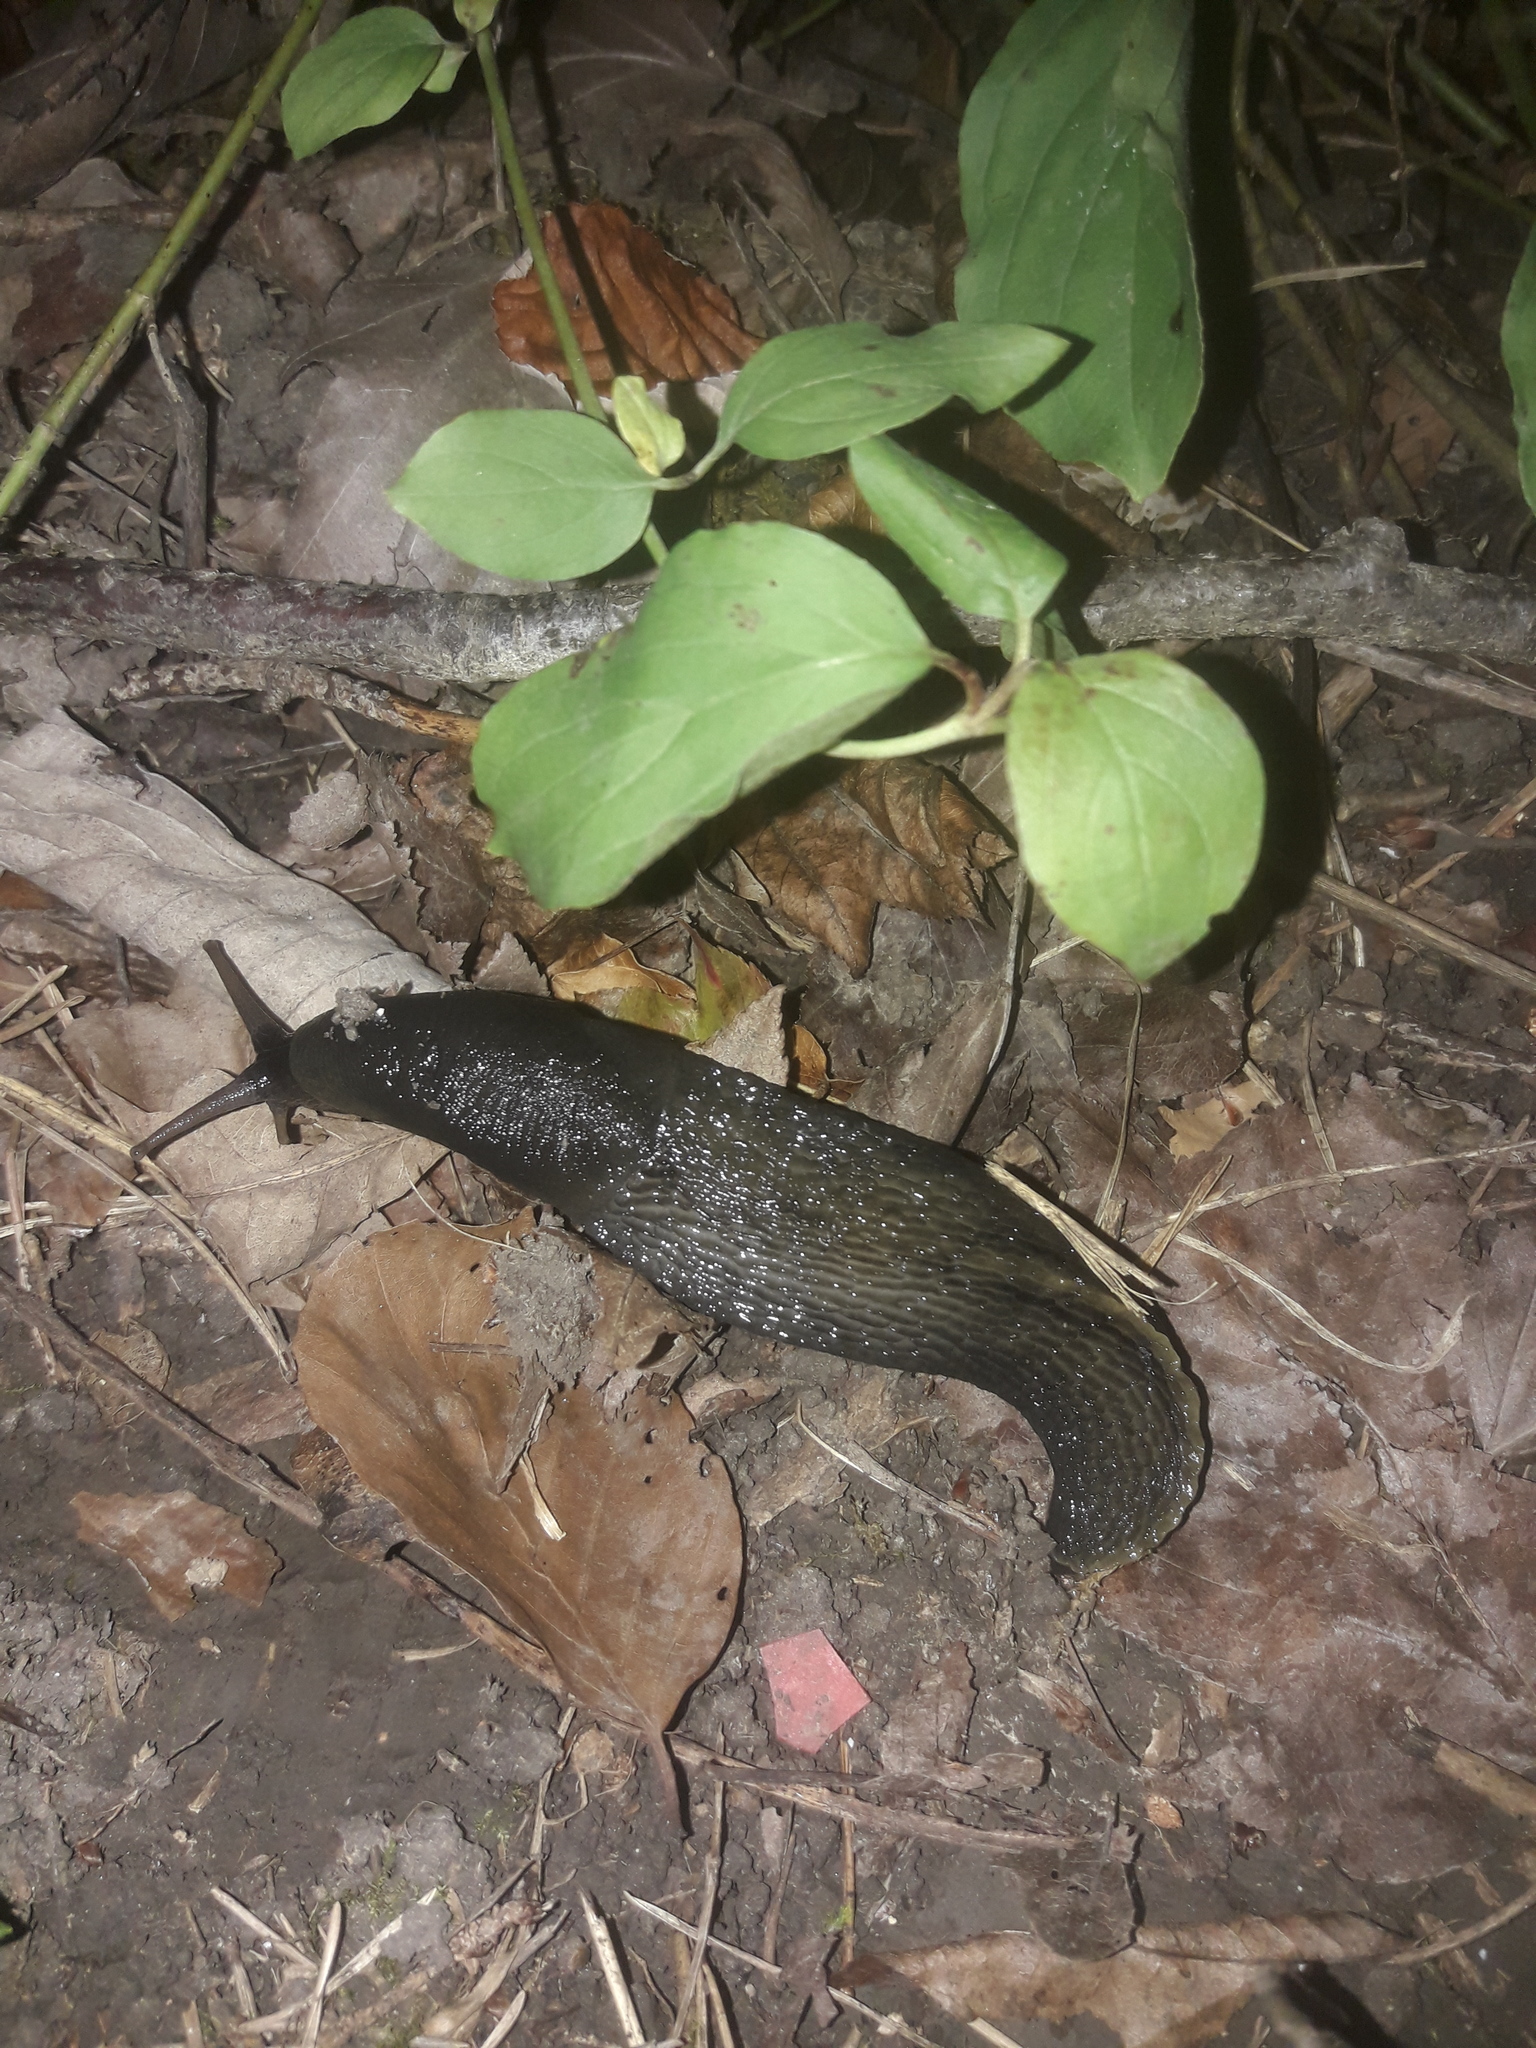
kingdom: Animalia
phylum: Mollusca
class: Gastropoda
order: Stylommatophora
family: Limacidae
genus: Limax
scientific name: Limax cinereoniger
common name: Ash-black slug
